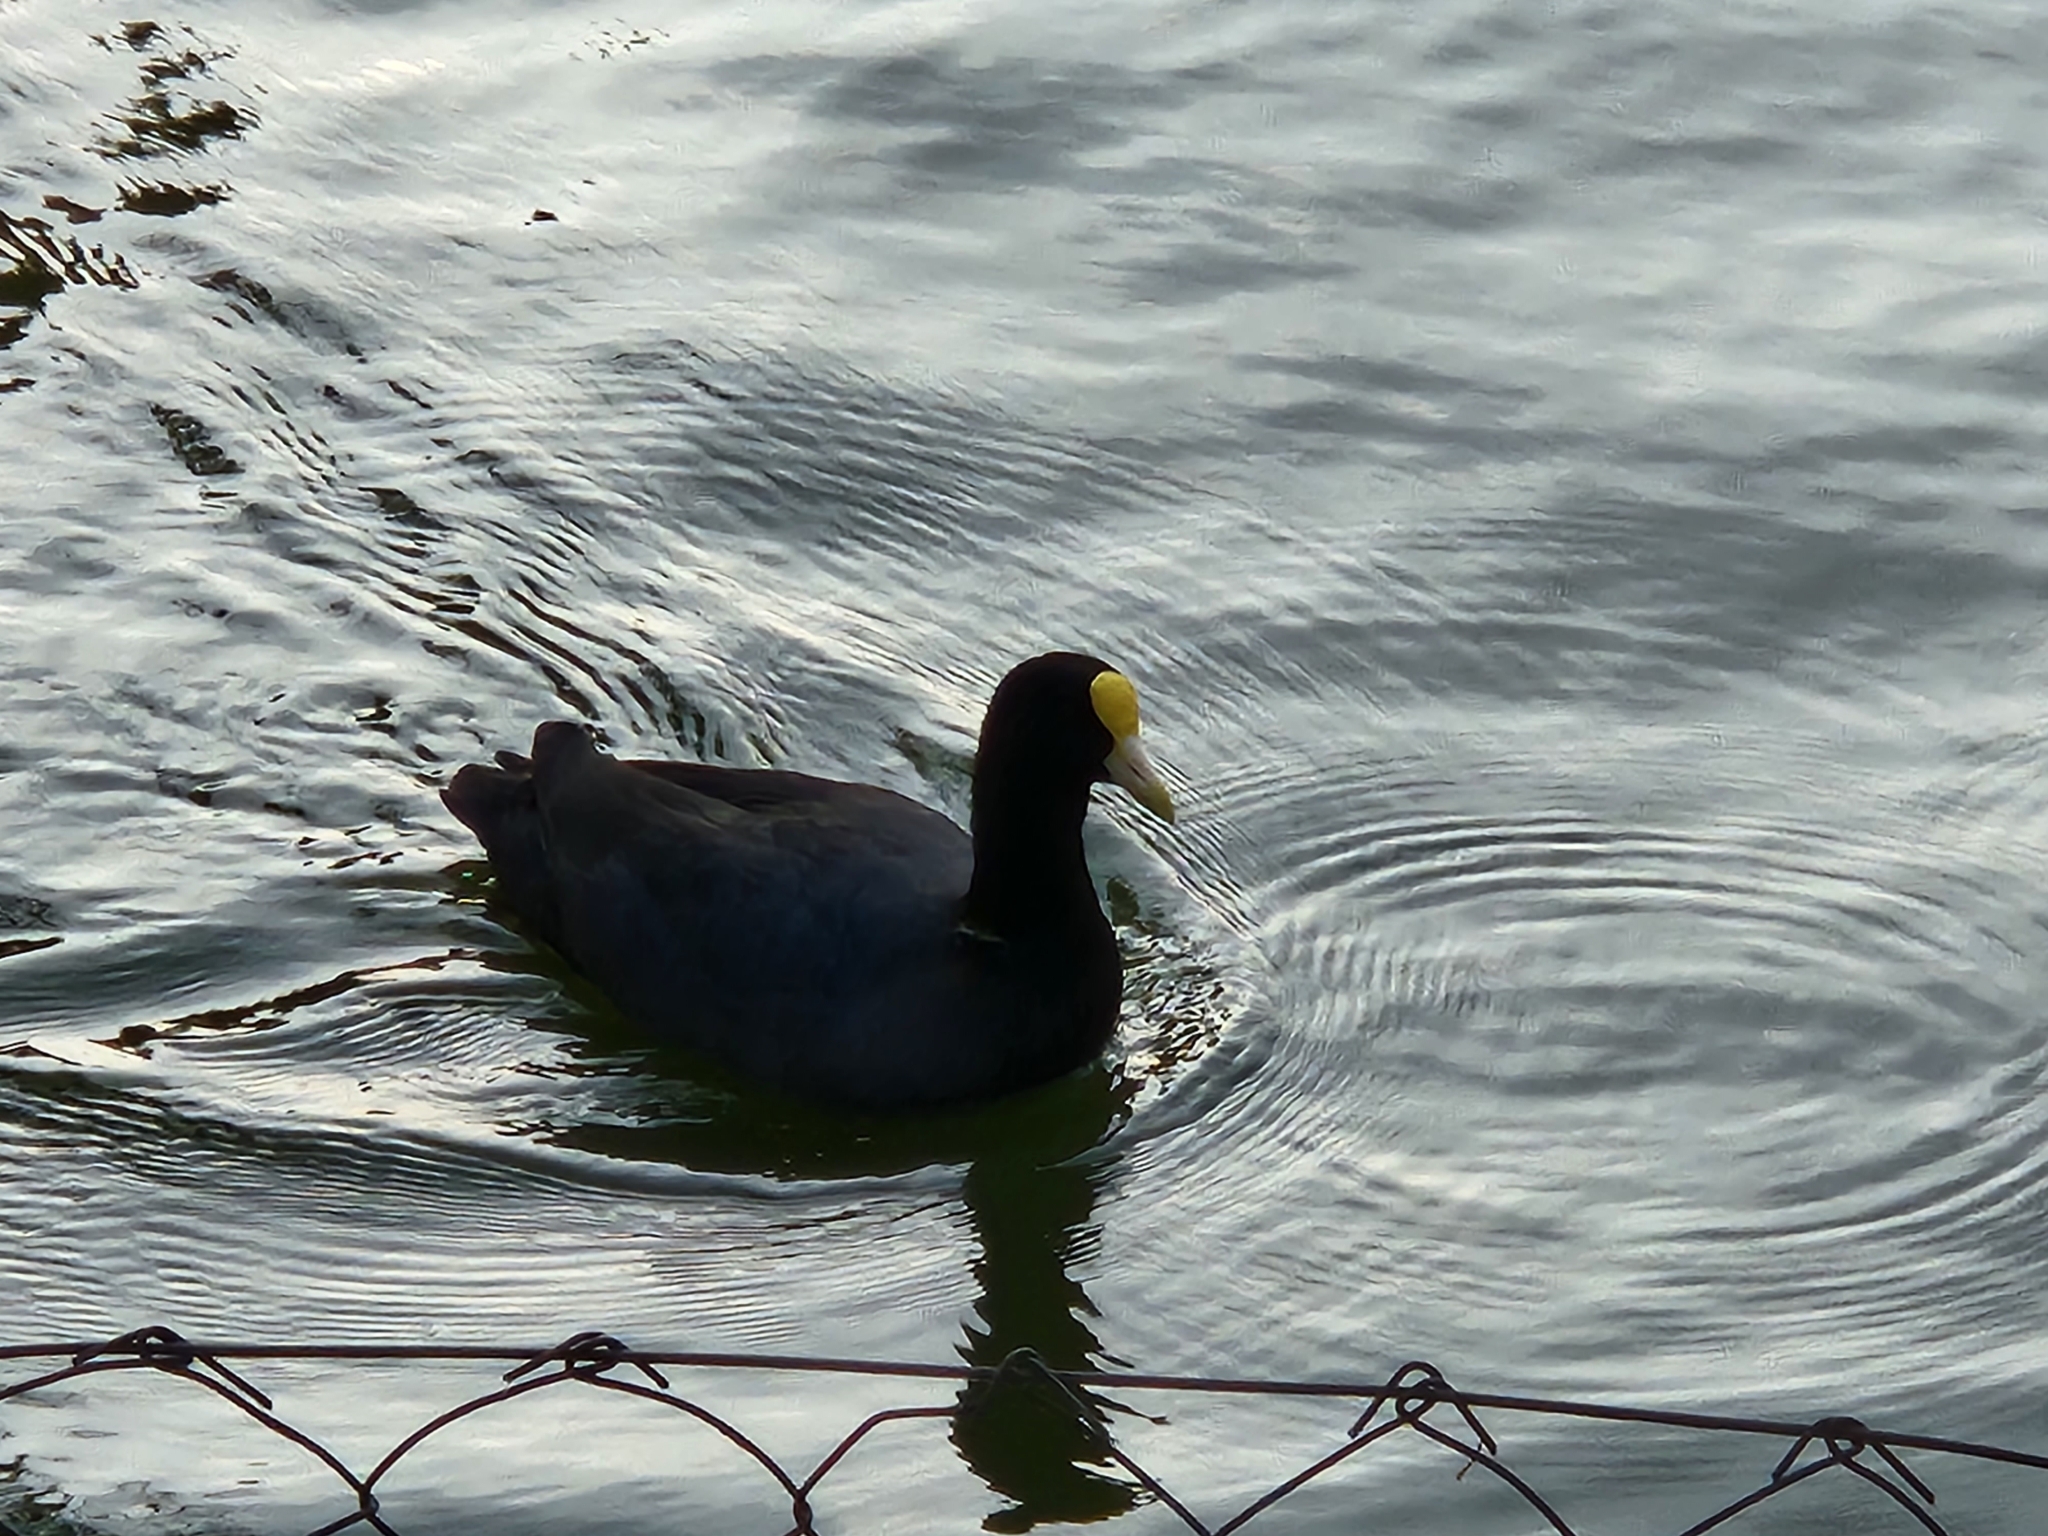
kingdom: Animalia
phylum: Chordata
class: Aves
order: Gruiformes
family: Rallidae
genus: Fulica
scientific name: Fulica leucoptera
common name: White-winged coot
